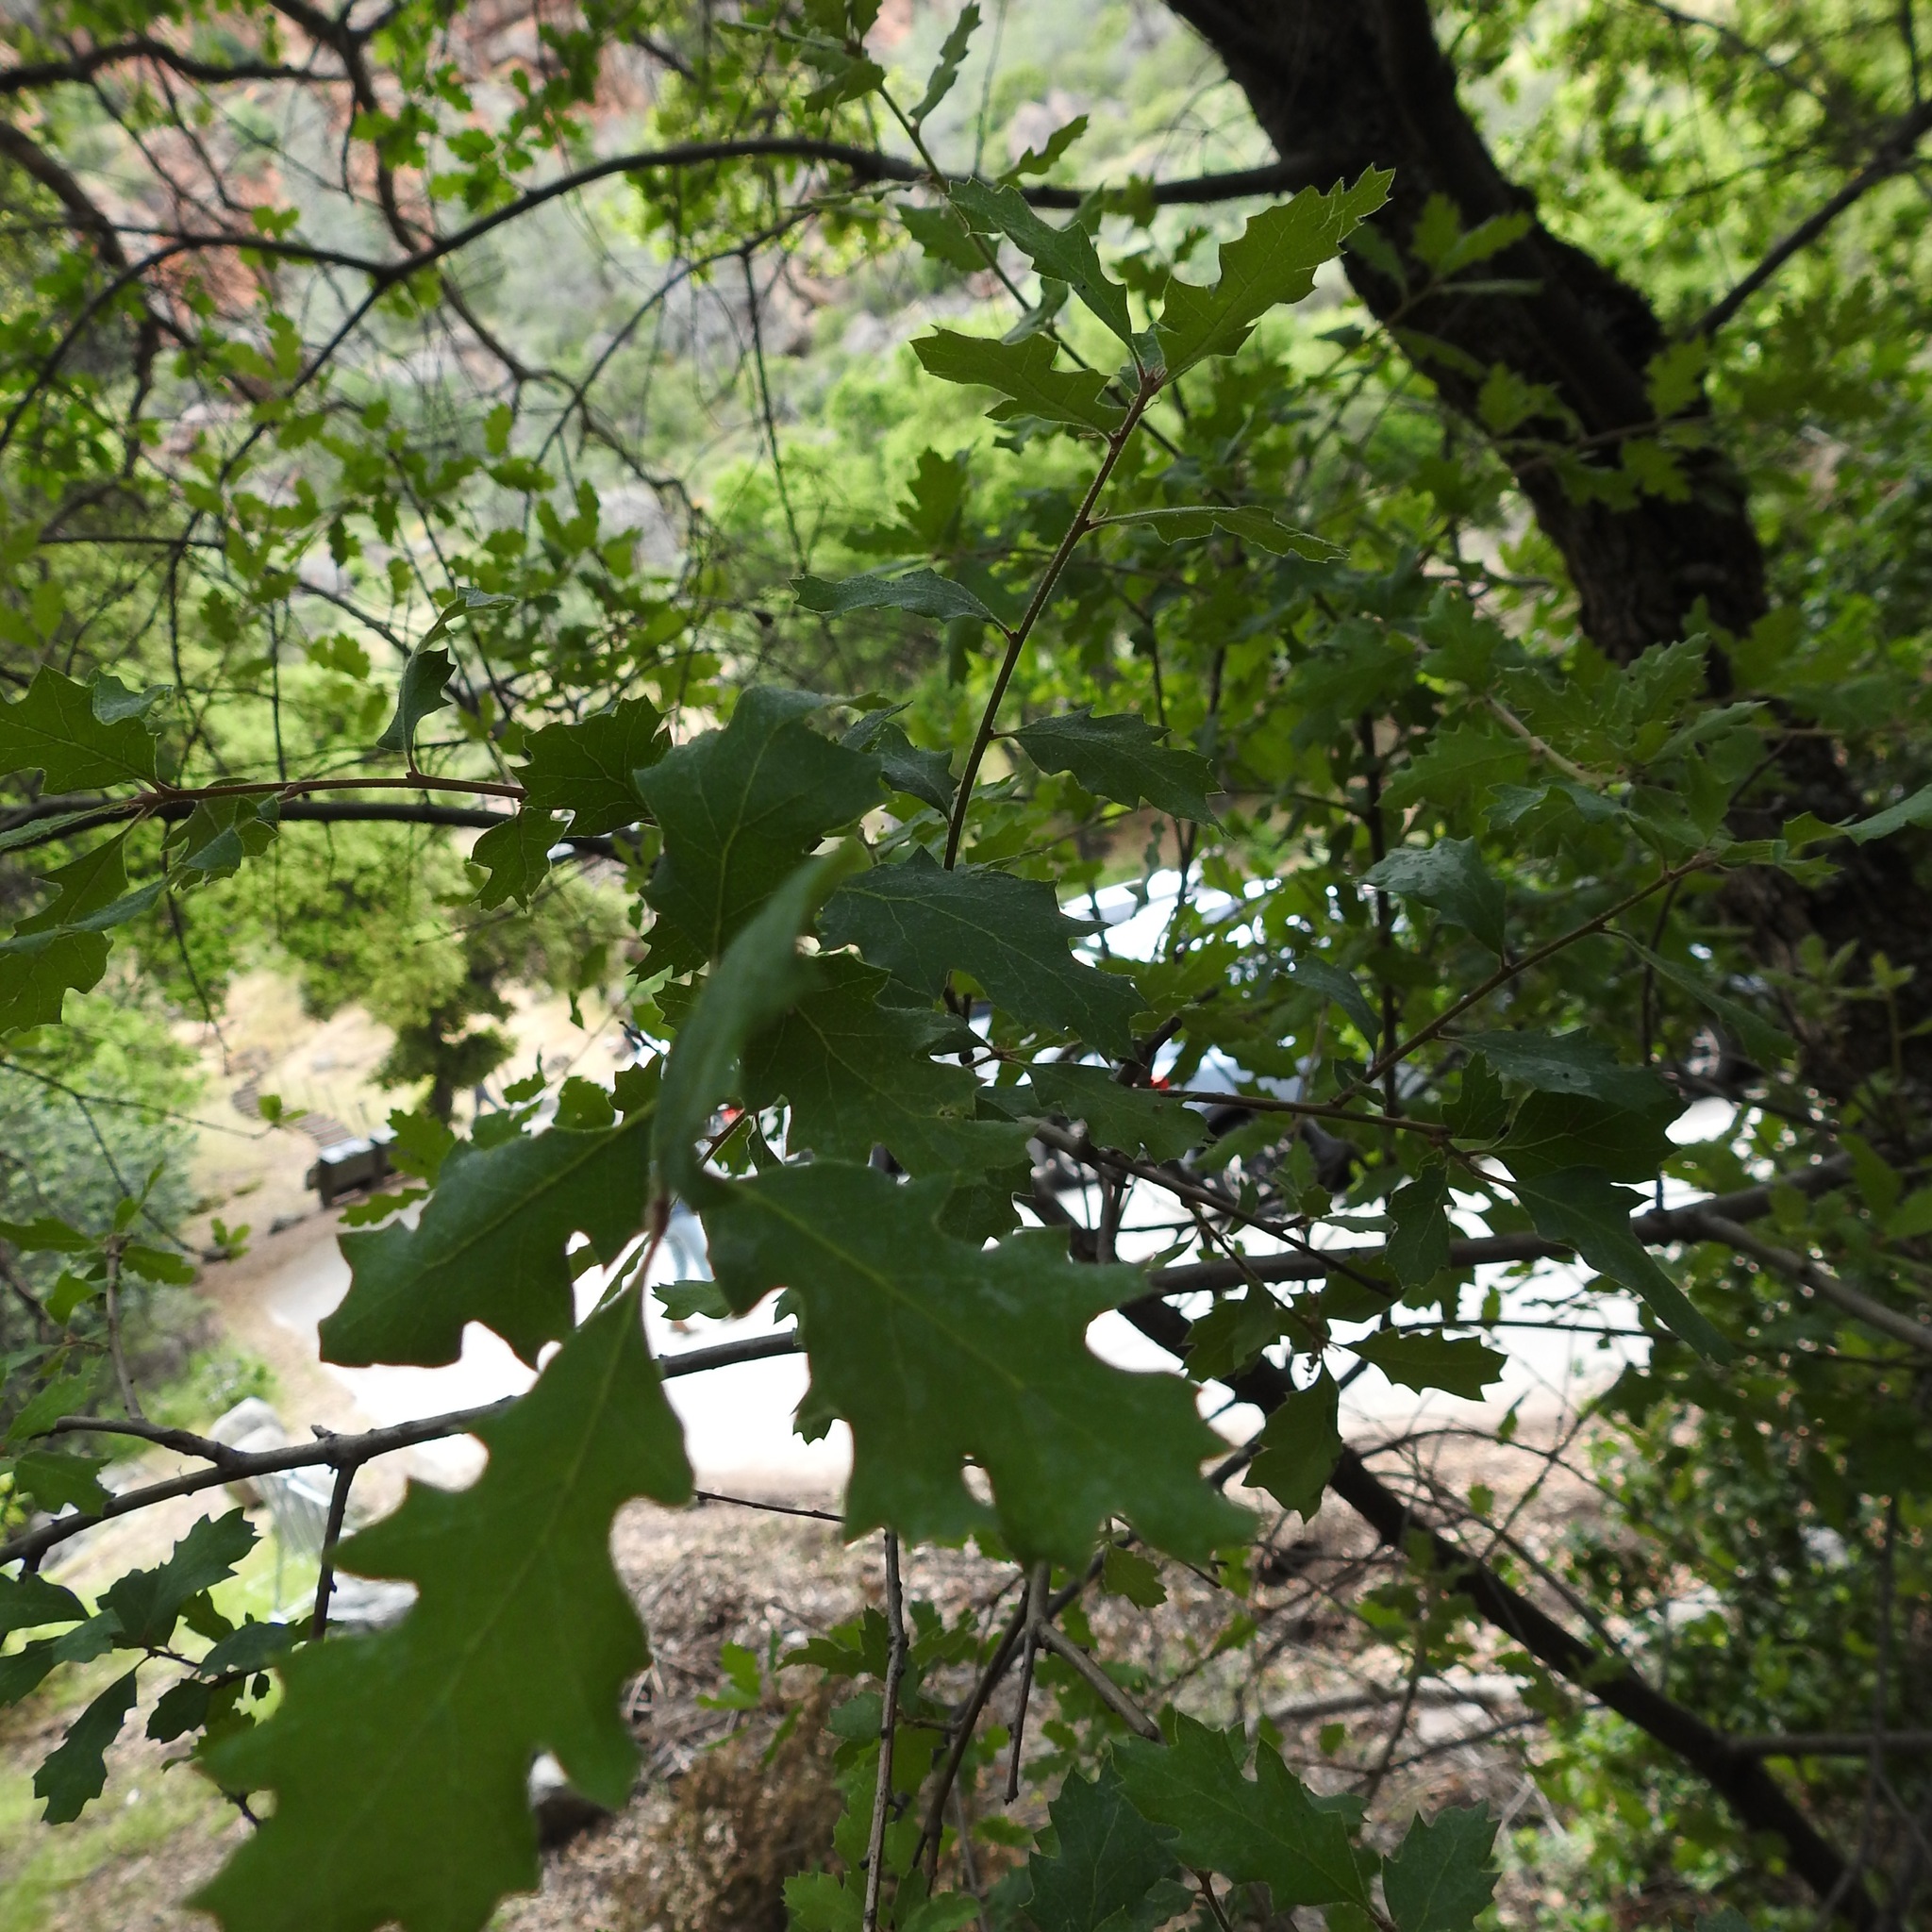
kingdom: Plantae
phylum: Tracheophyta
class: Magnoliopsida
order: Fagales
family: Fagaceae
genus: Quercus
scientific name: Quercus lobata
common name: Valley oak
